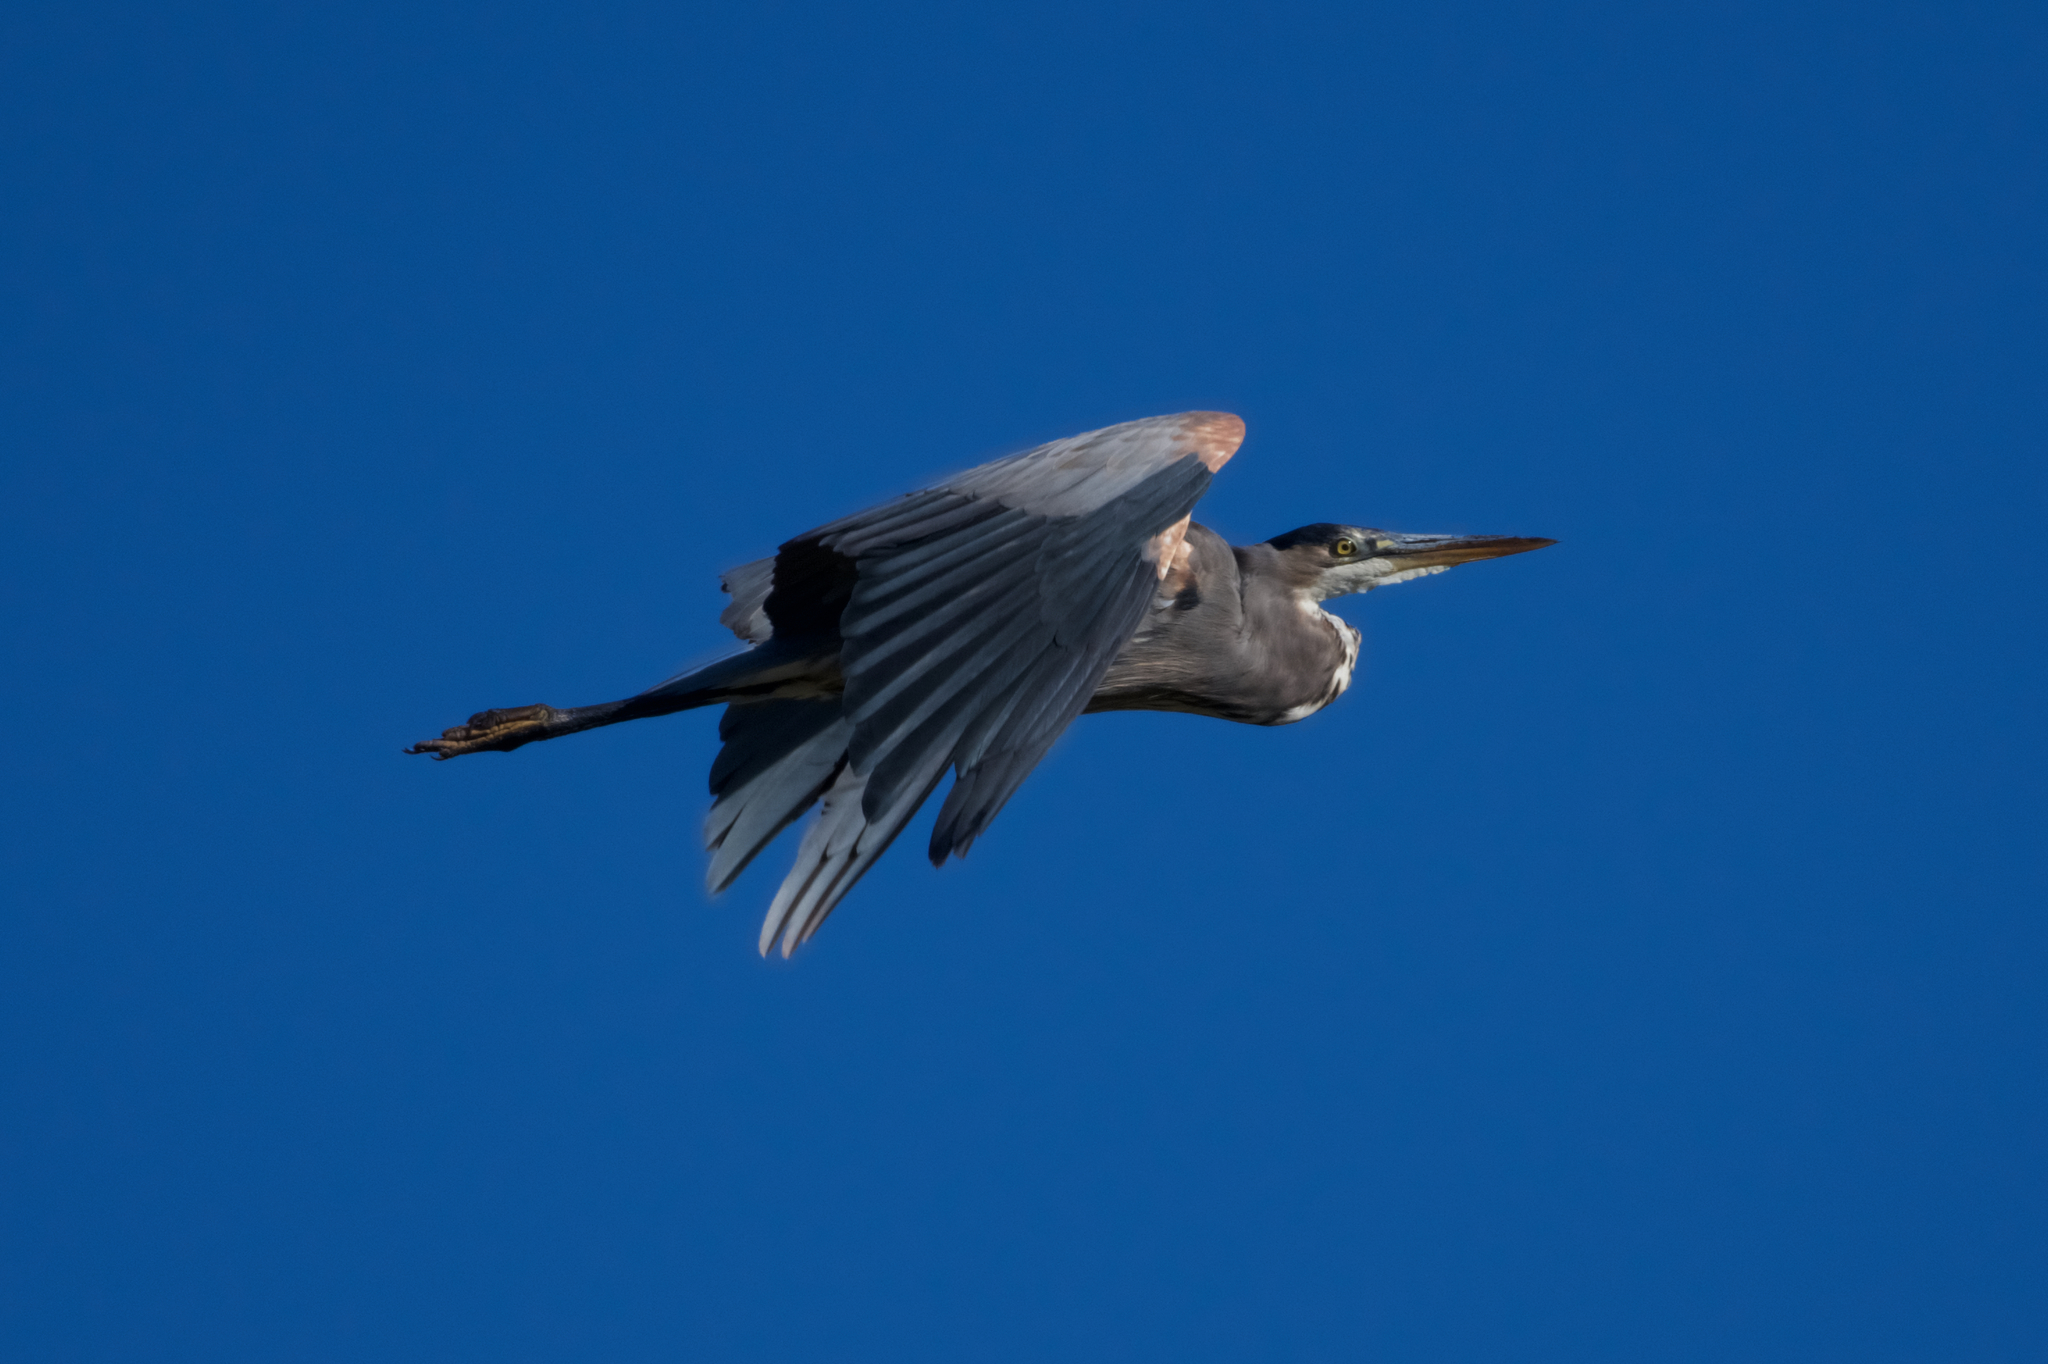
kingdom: Animalia
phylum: Chordata
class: Aves
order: Pelecaniformes
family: Ardeidae
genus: Ardea
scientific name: Ardea herodias
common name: Great blue heron
